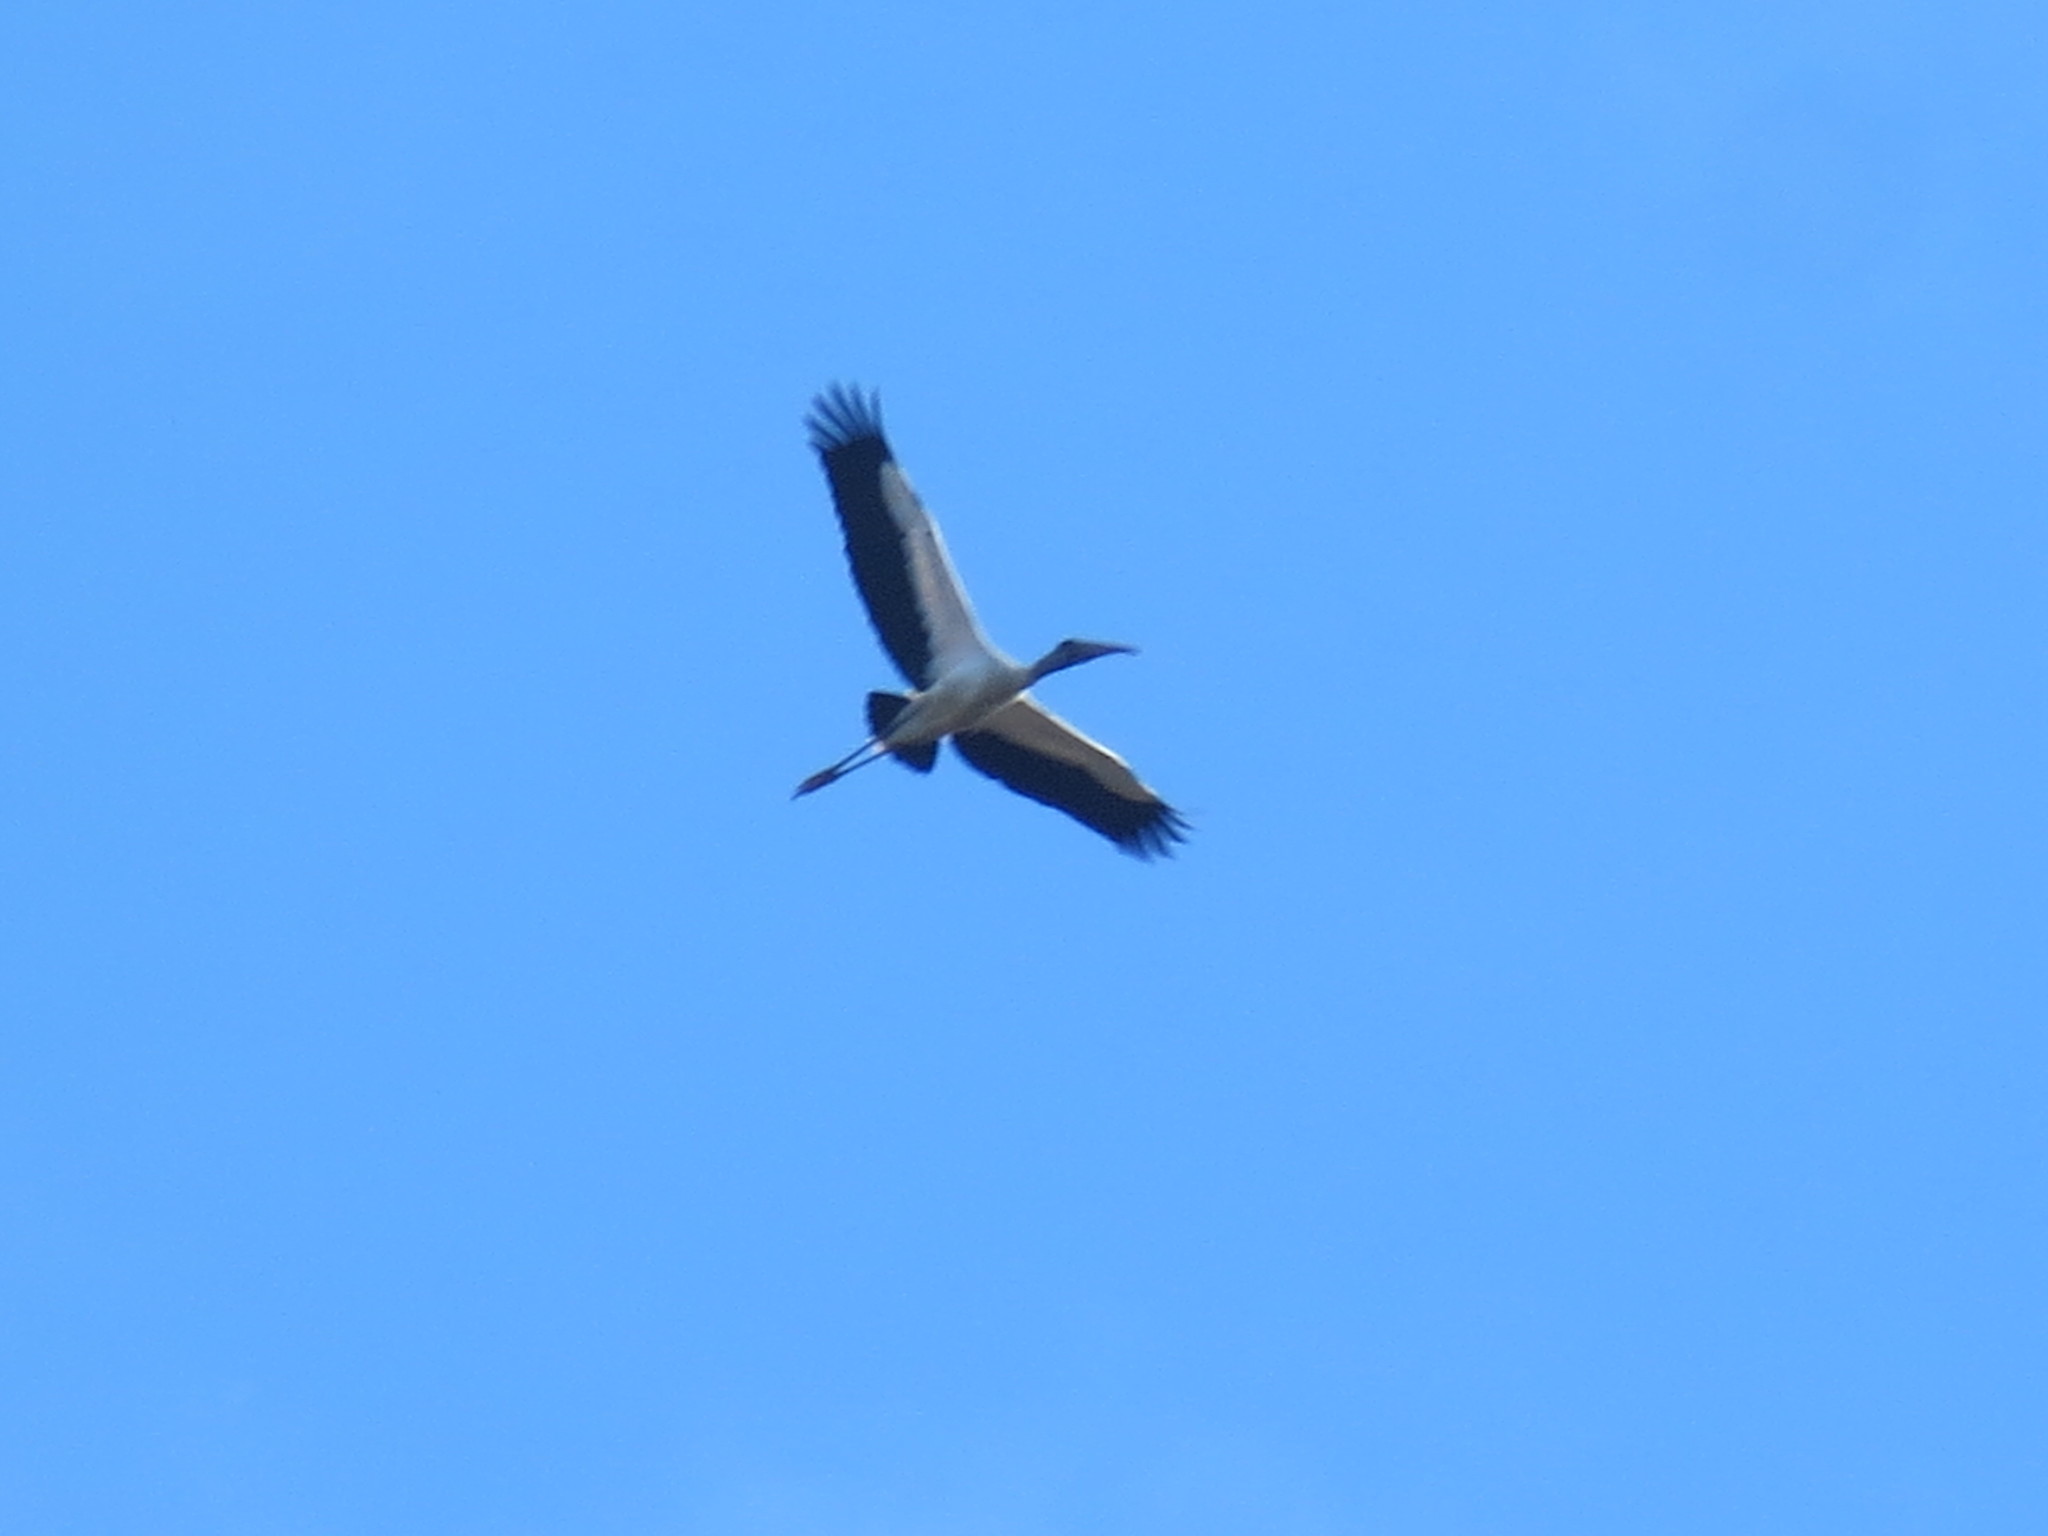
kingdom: Animalia
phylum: Chordata
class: Aves
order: Ciconiiformes
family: Ciconiidae
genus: Mycteria
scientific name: Mycteria americana
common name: Wood stork
